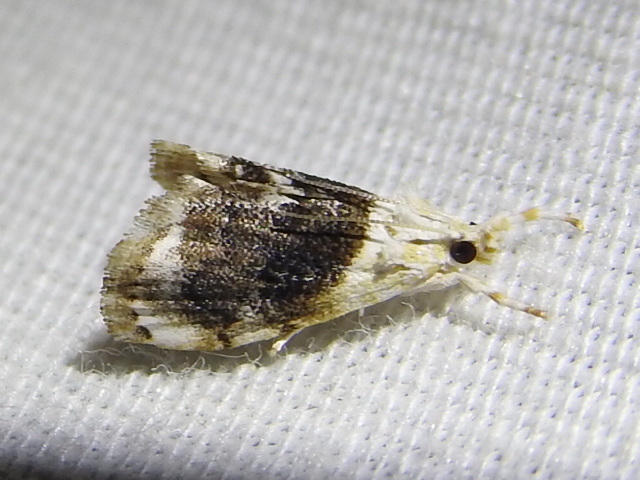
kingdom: Animalia
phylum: Arthropoda
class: Insecta
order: Lepidoptera
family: Crambidae
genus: Lipocosmodes
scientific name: Lipocosmodes fuliginosalis
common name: Sooty lipocosmodes moth
